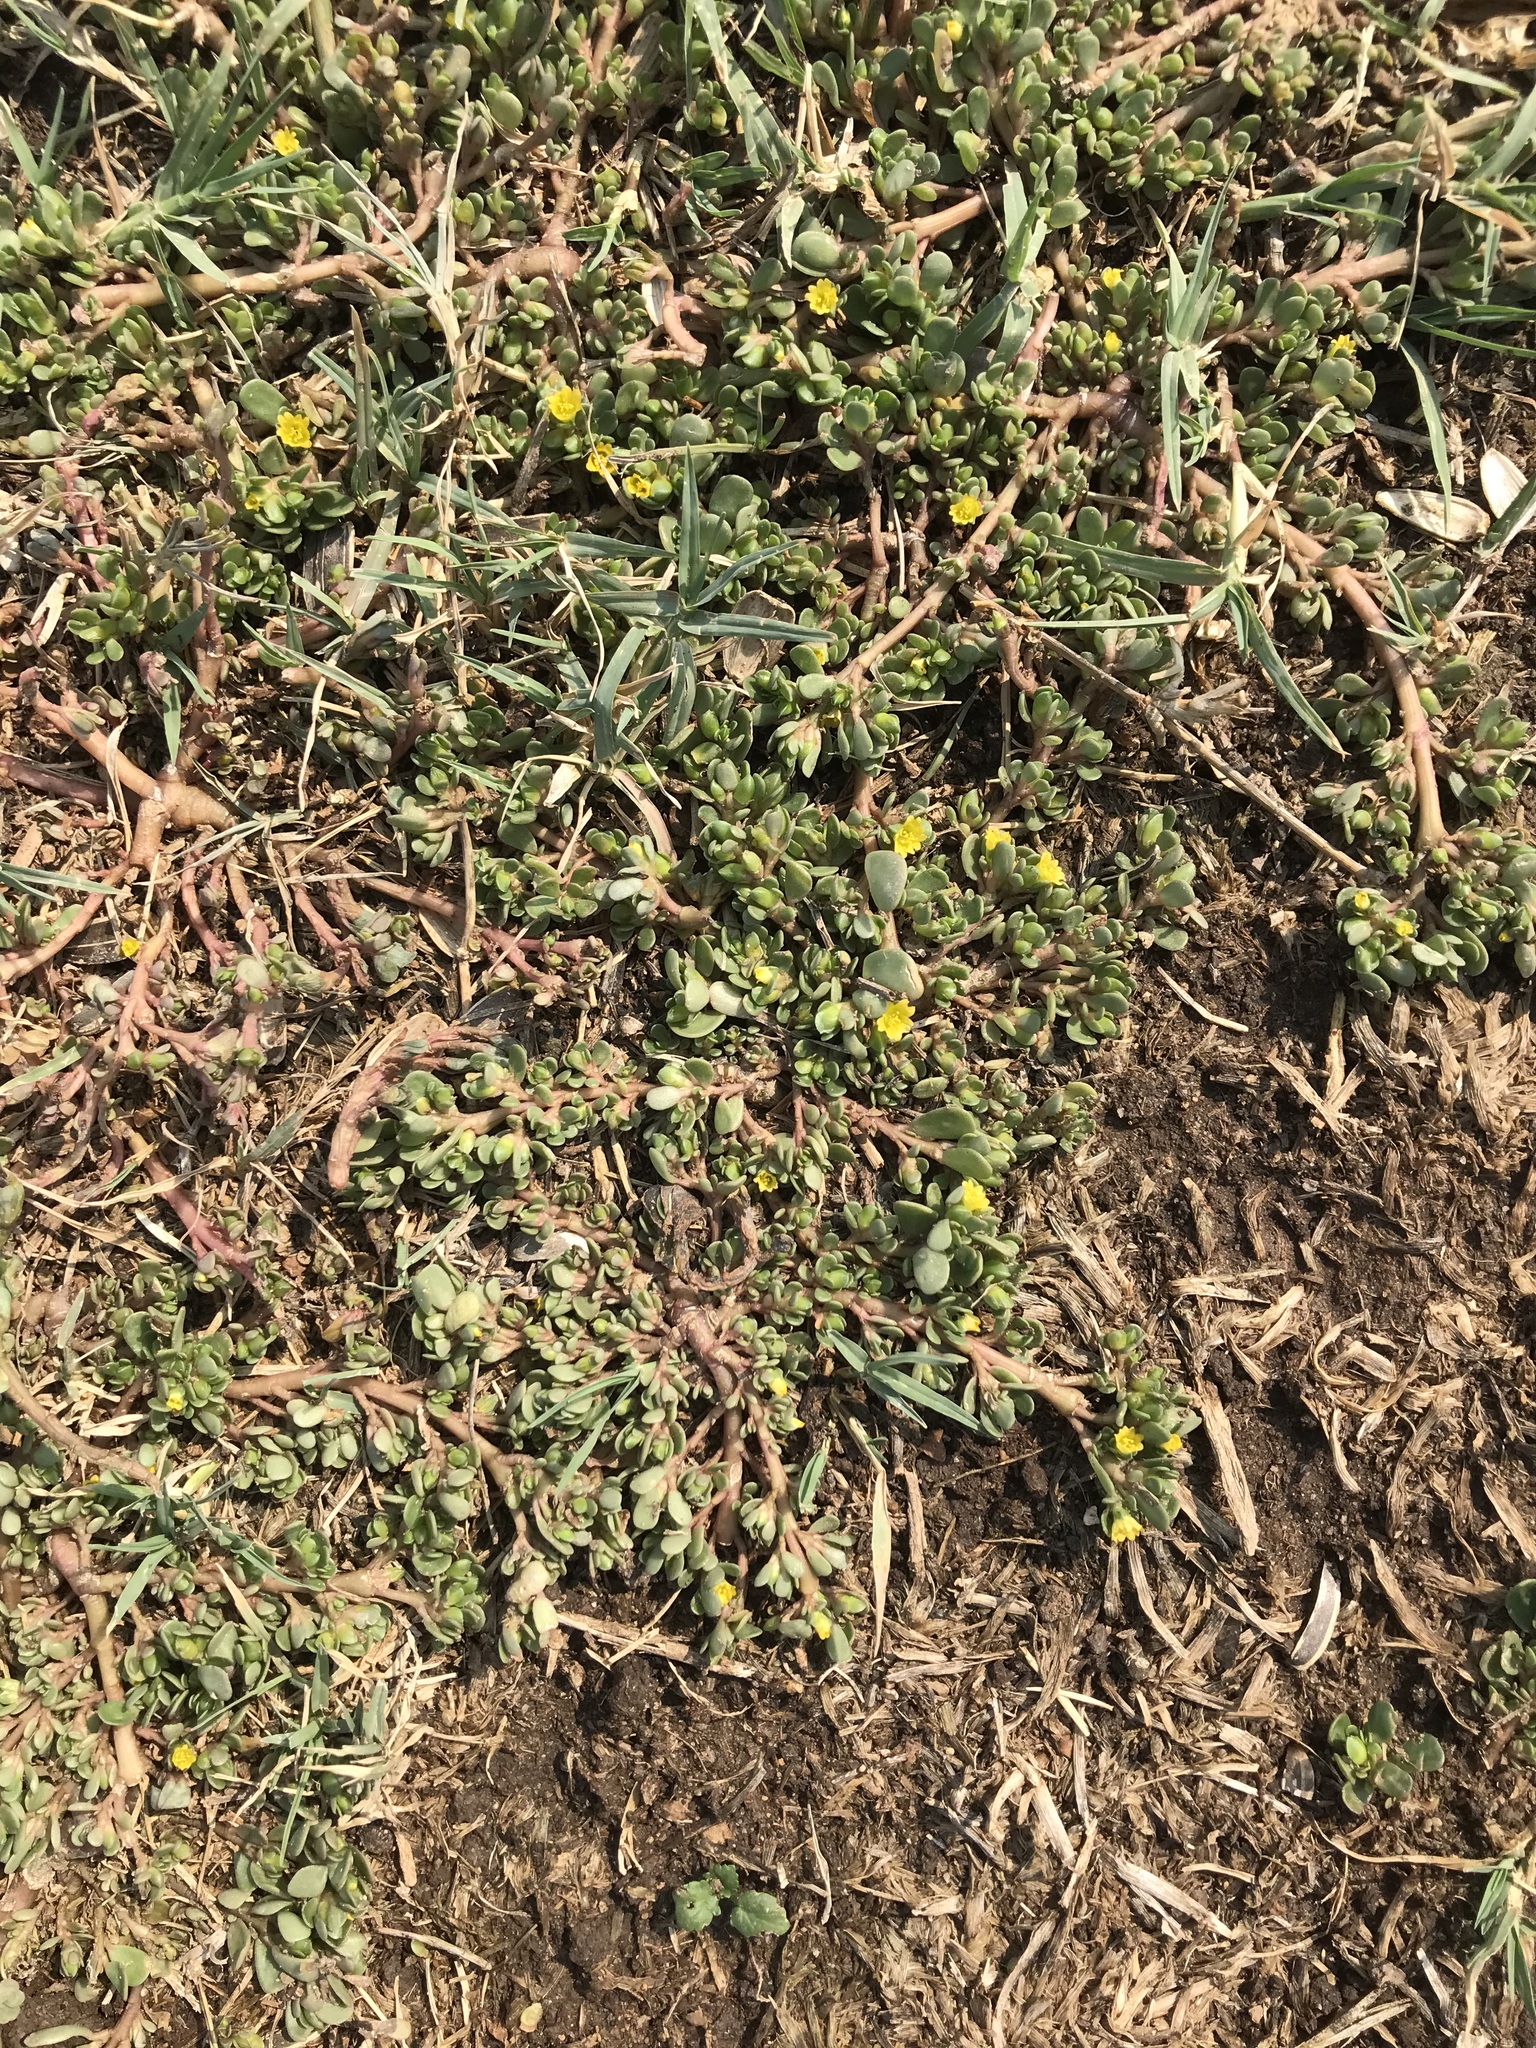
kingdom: Plantae
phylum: Tracheophyta
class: Magnoliopsida
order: Caryophyllales
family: Portulacaceae
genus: Portulaca
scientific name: Portulaca oleracea
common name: Common purslane
